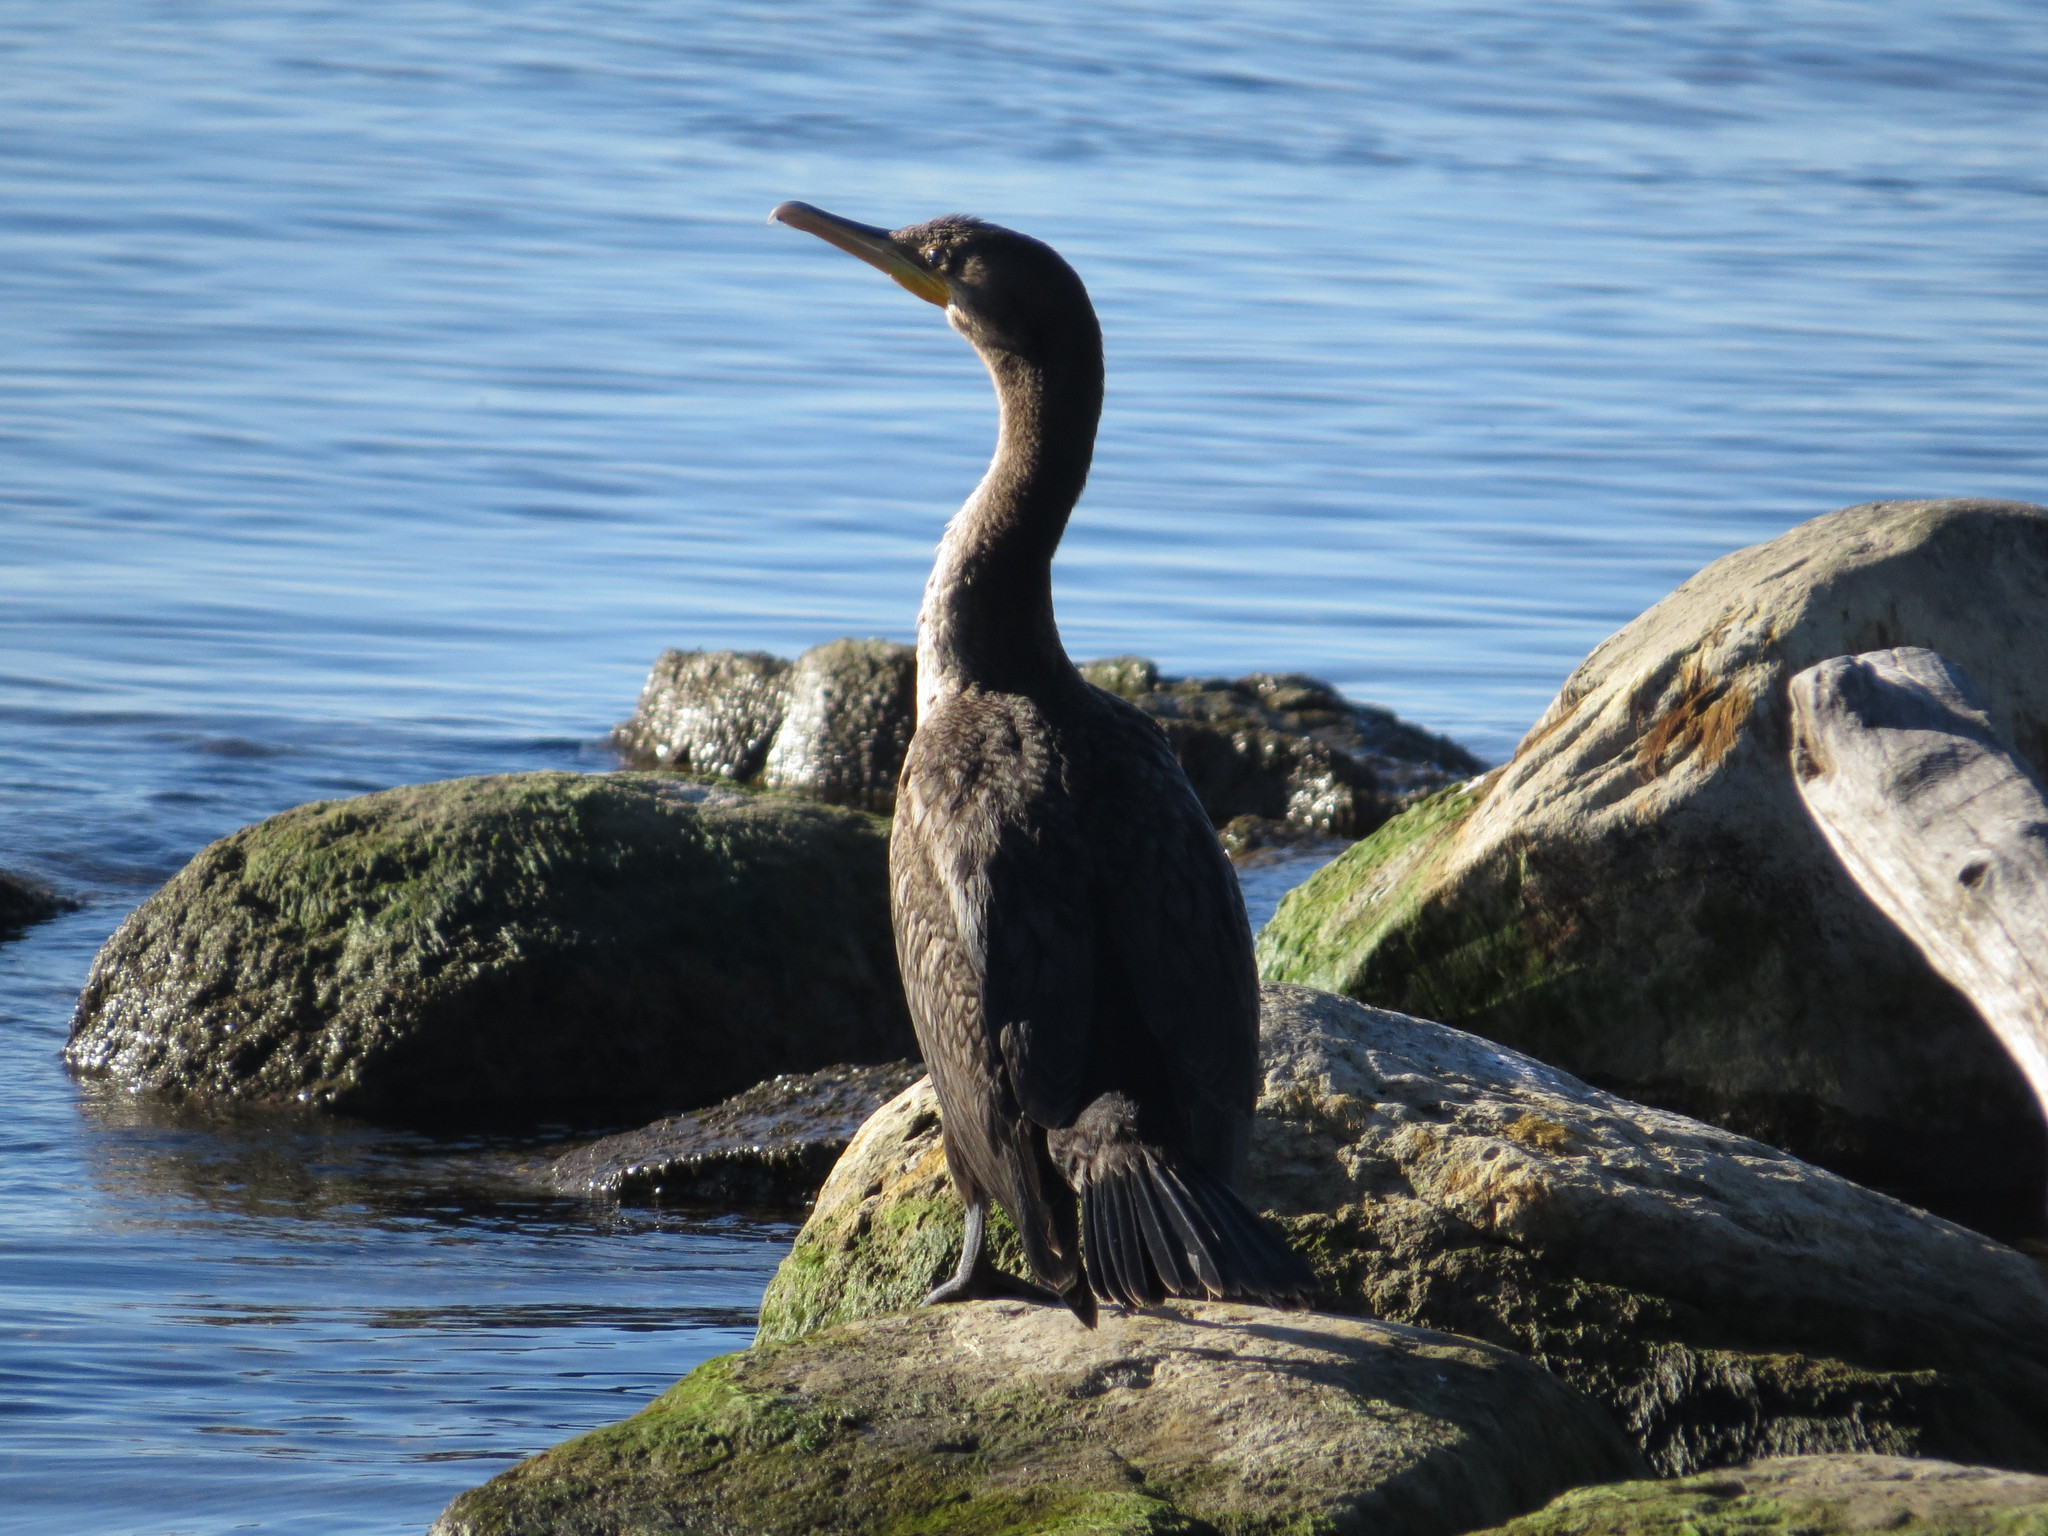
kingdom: Animalia
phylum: Chordata
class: Aves
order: Suliformes
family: Phalacrocoracidae
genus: Phalacrocorax
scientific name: Phalacrocorax auritus
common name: Double-crested cormorant
